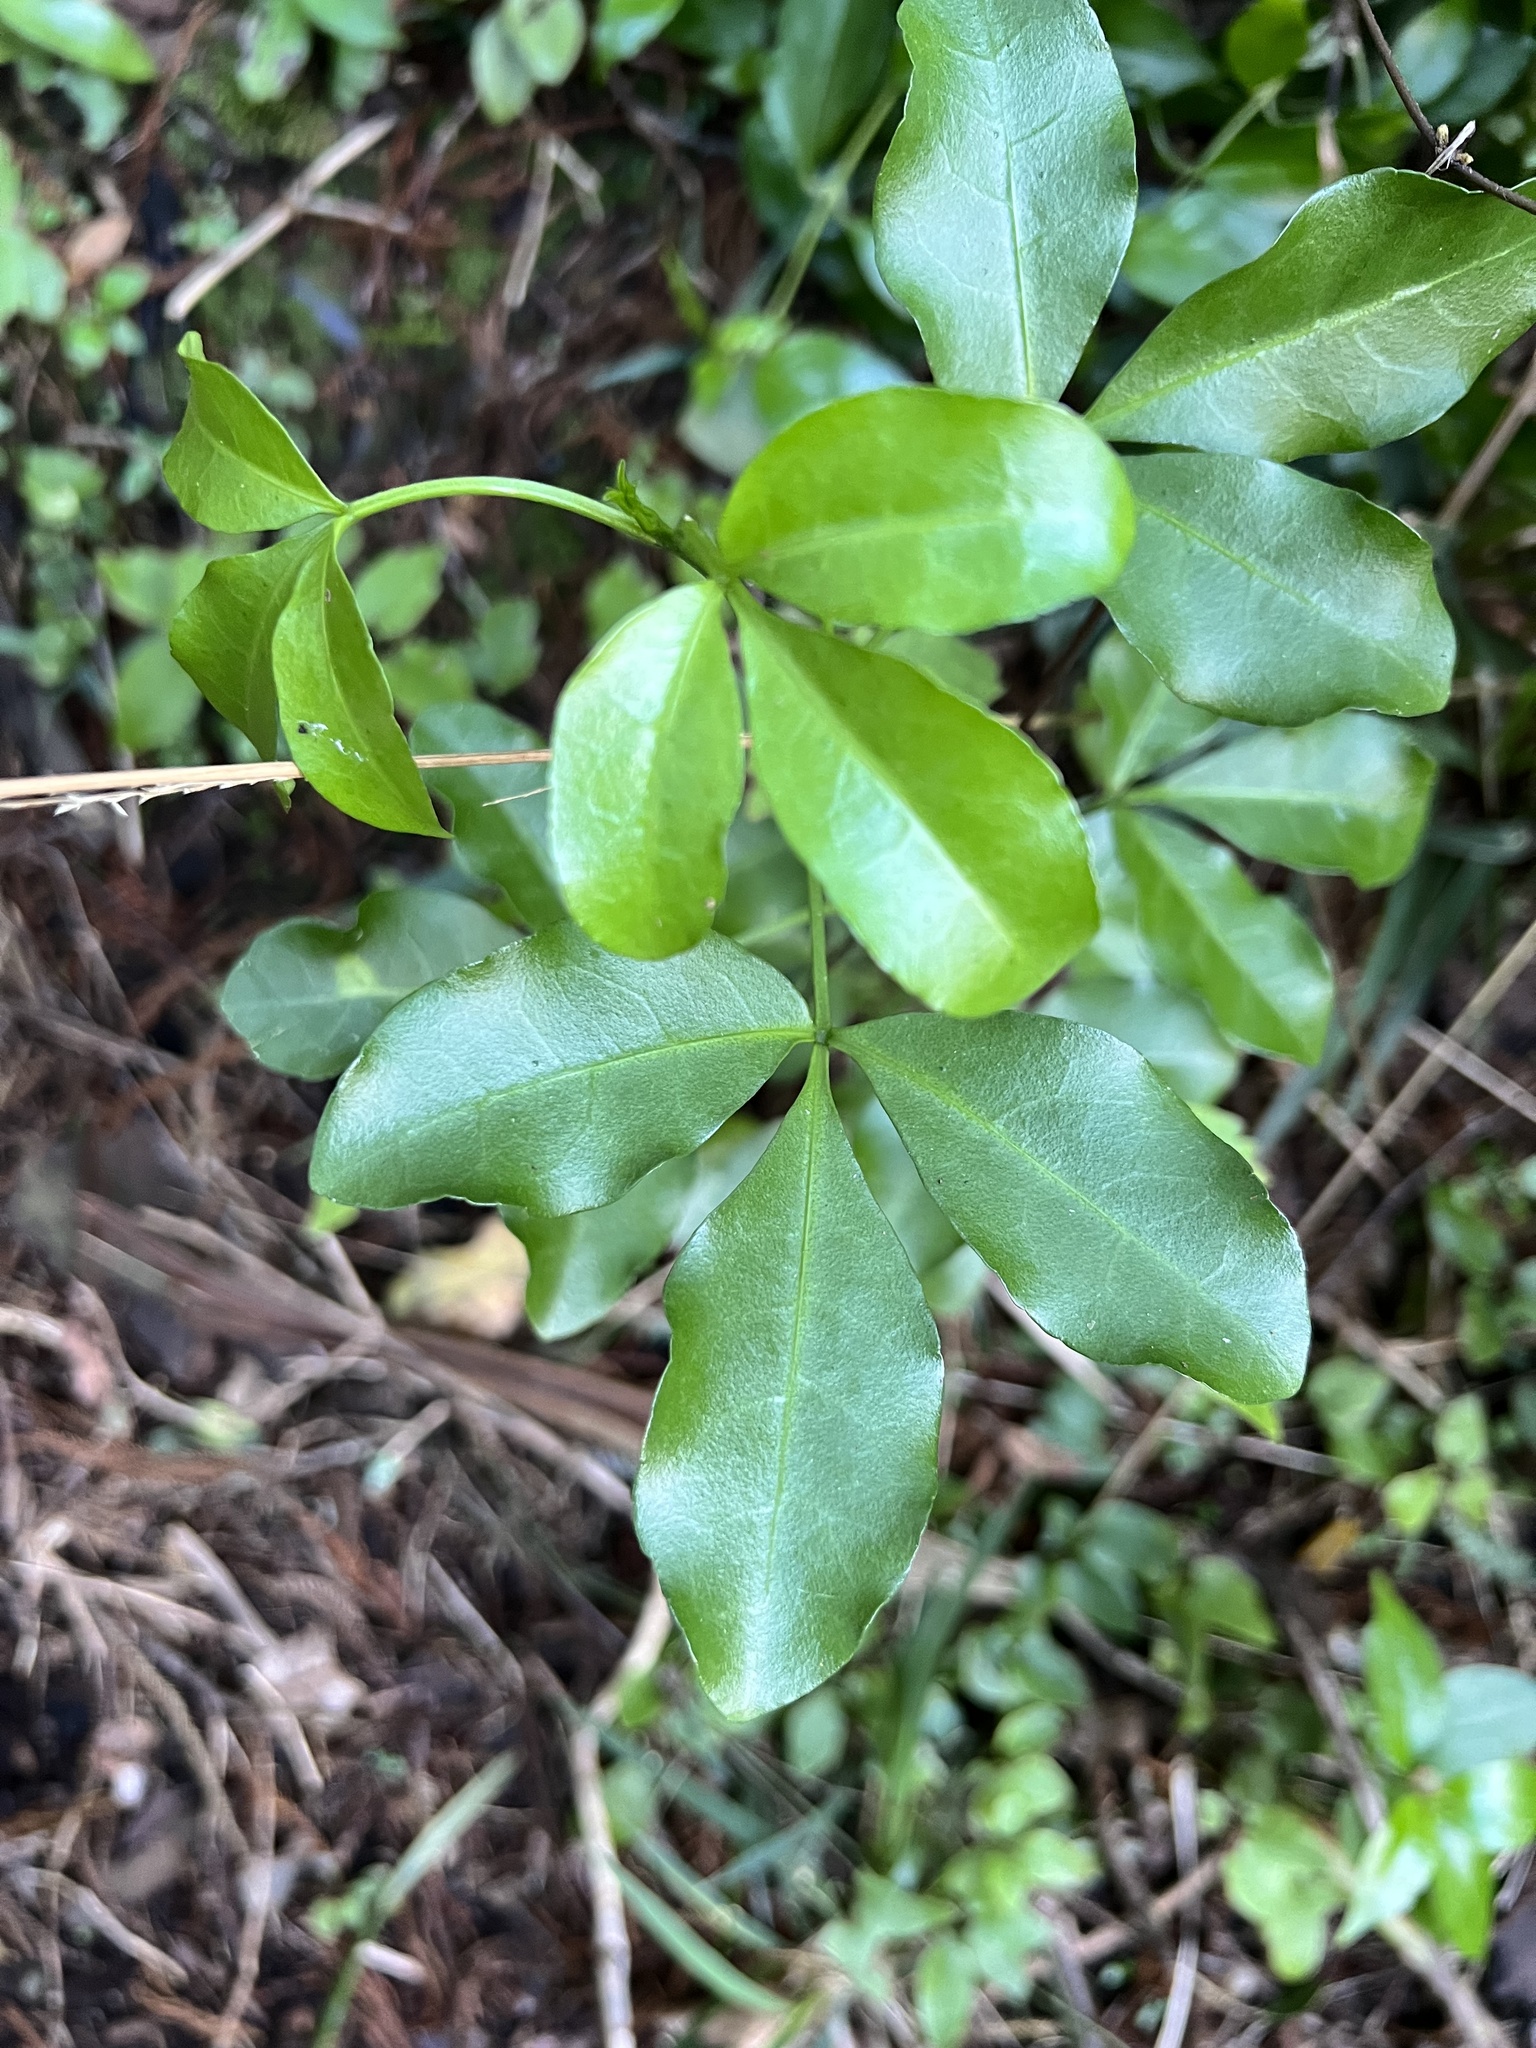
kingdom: Plantae
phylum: Tracheophyta
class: Magnoliopsida
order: Sapindales
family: Rutaceae
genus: Melicope
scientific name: Melicope ternata
